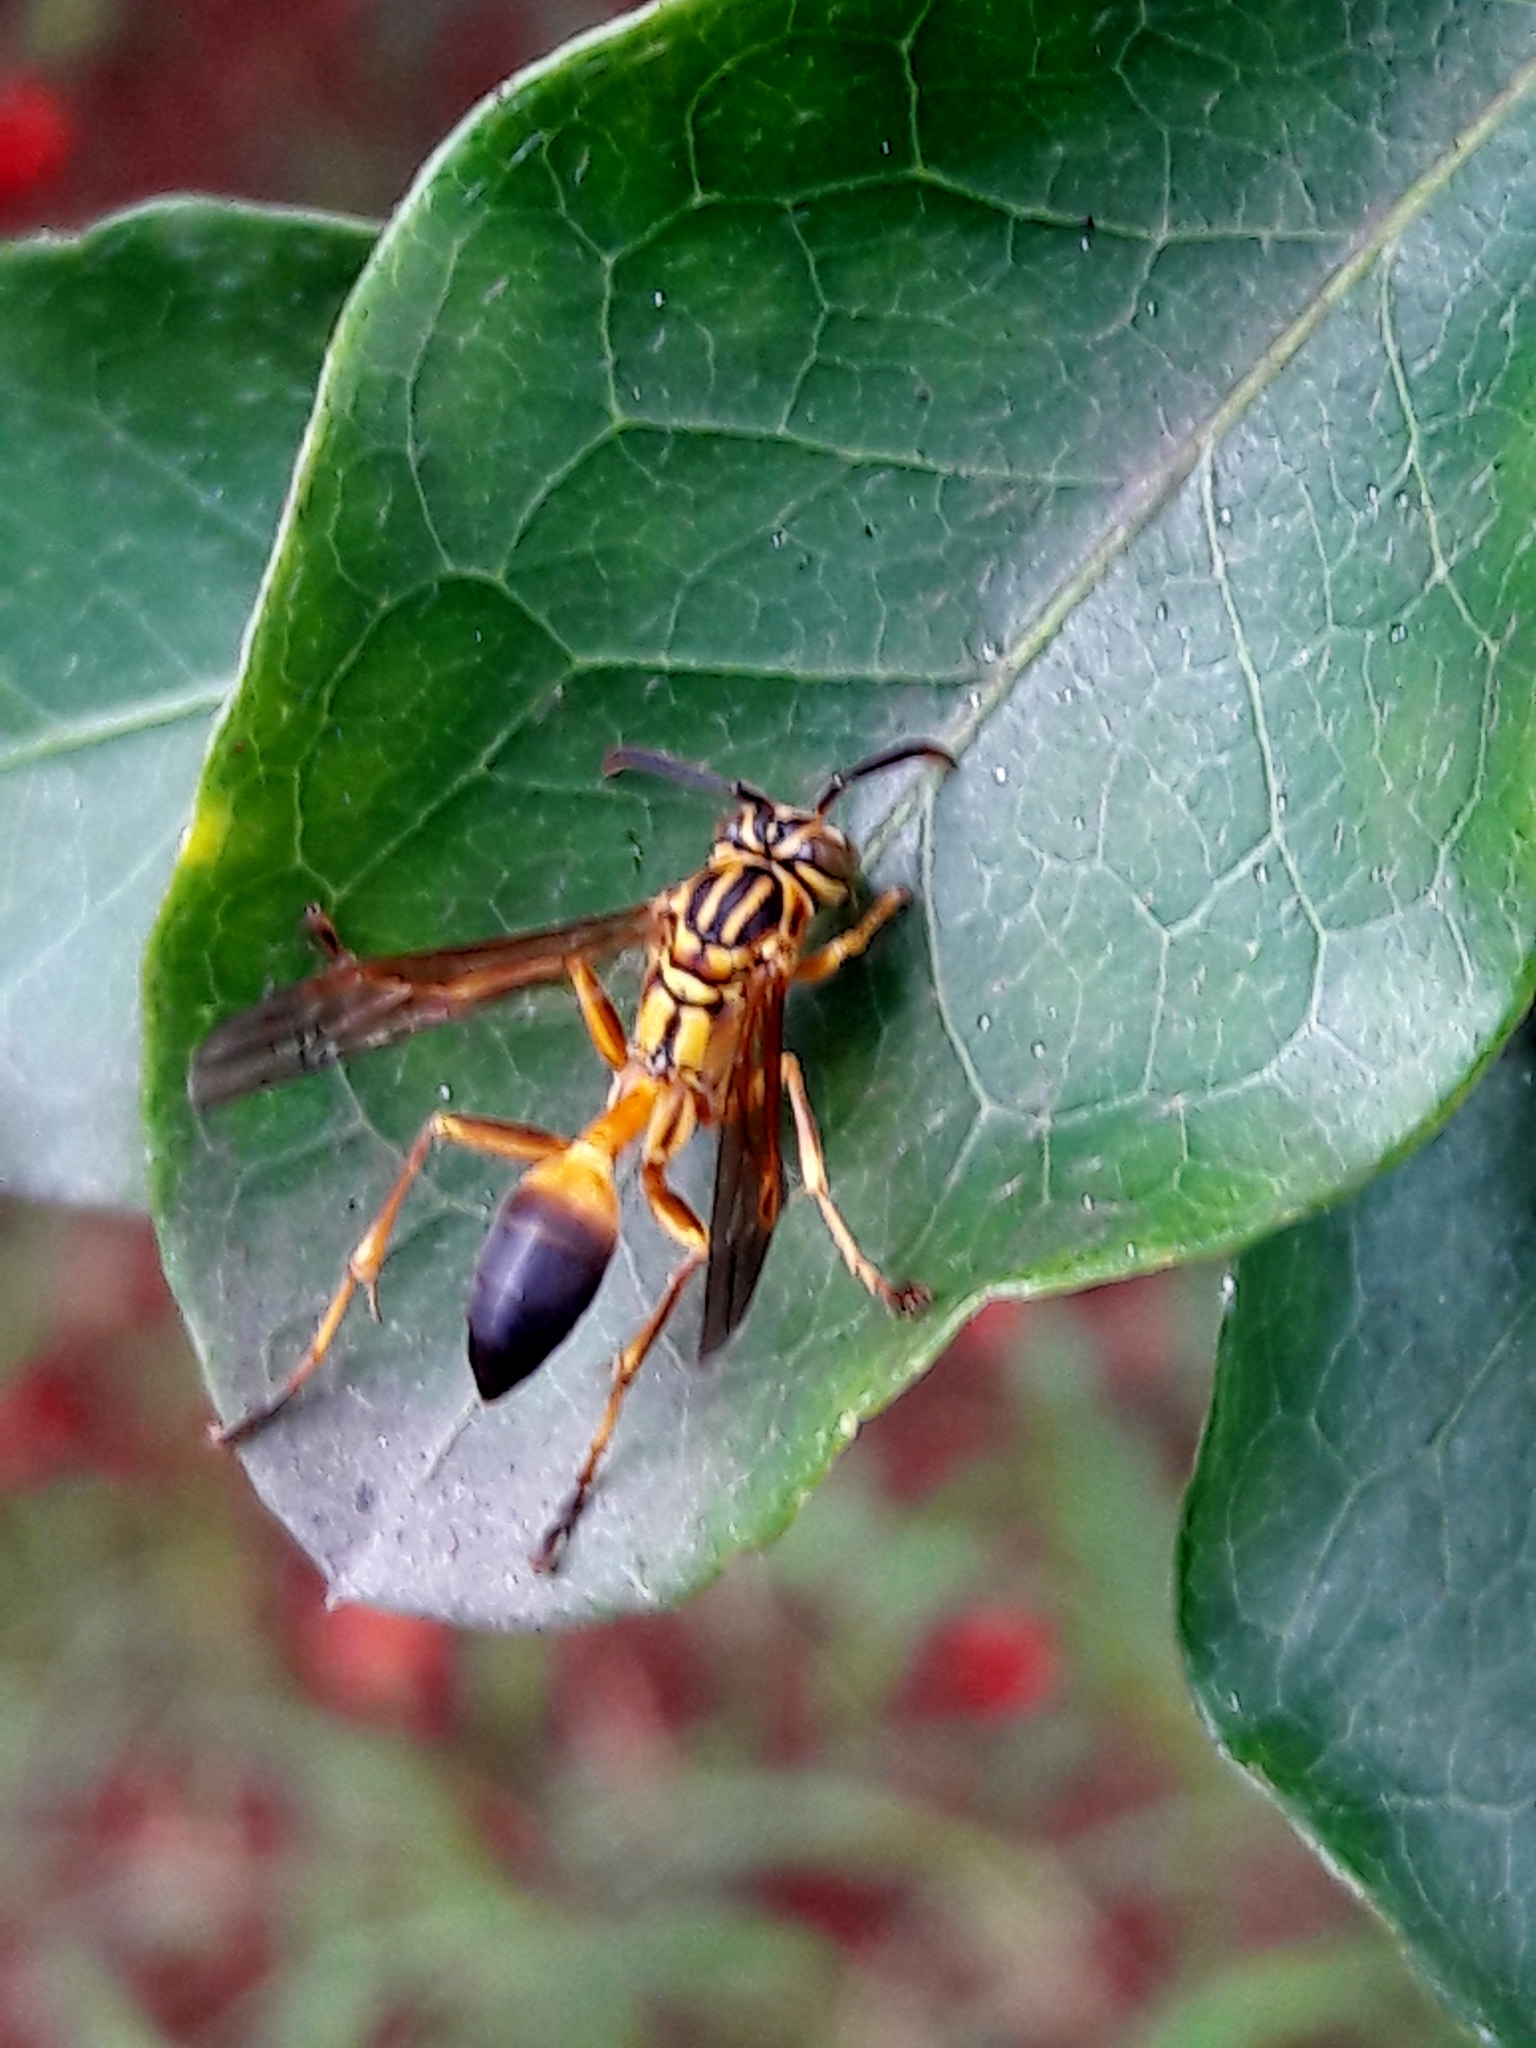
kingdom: Animalia
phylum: Arthropoda
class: Insecta
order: Hymenoptera
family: Vespidae
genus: Mischocyttarus
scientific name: Mischocyttarus cerberus
